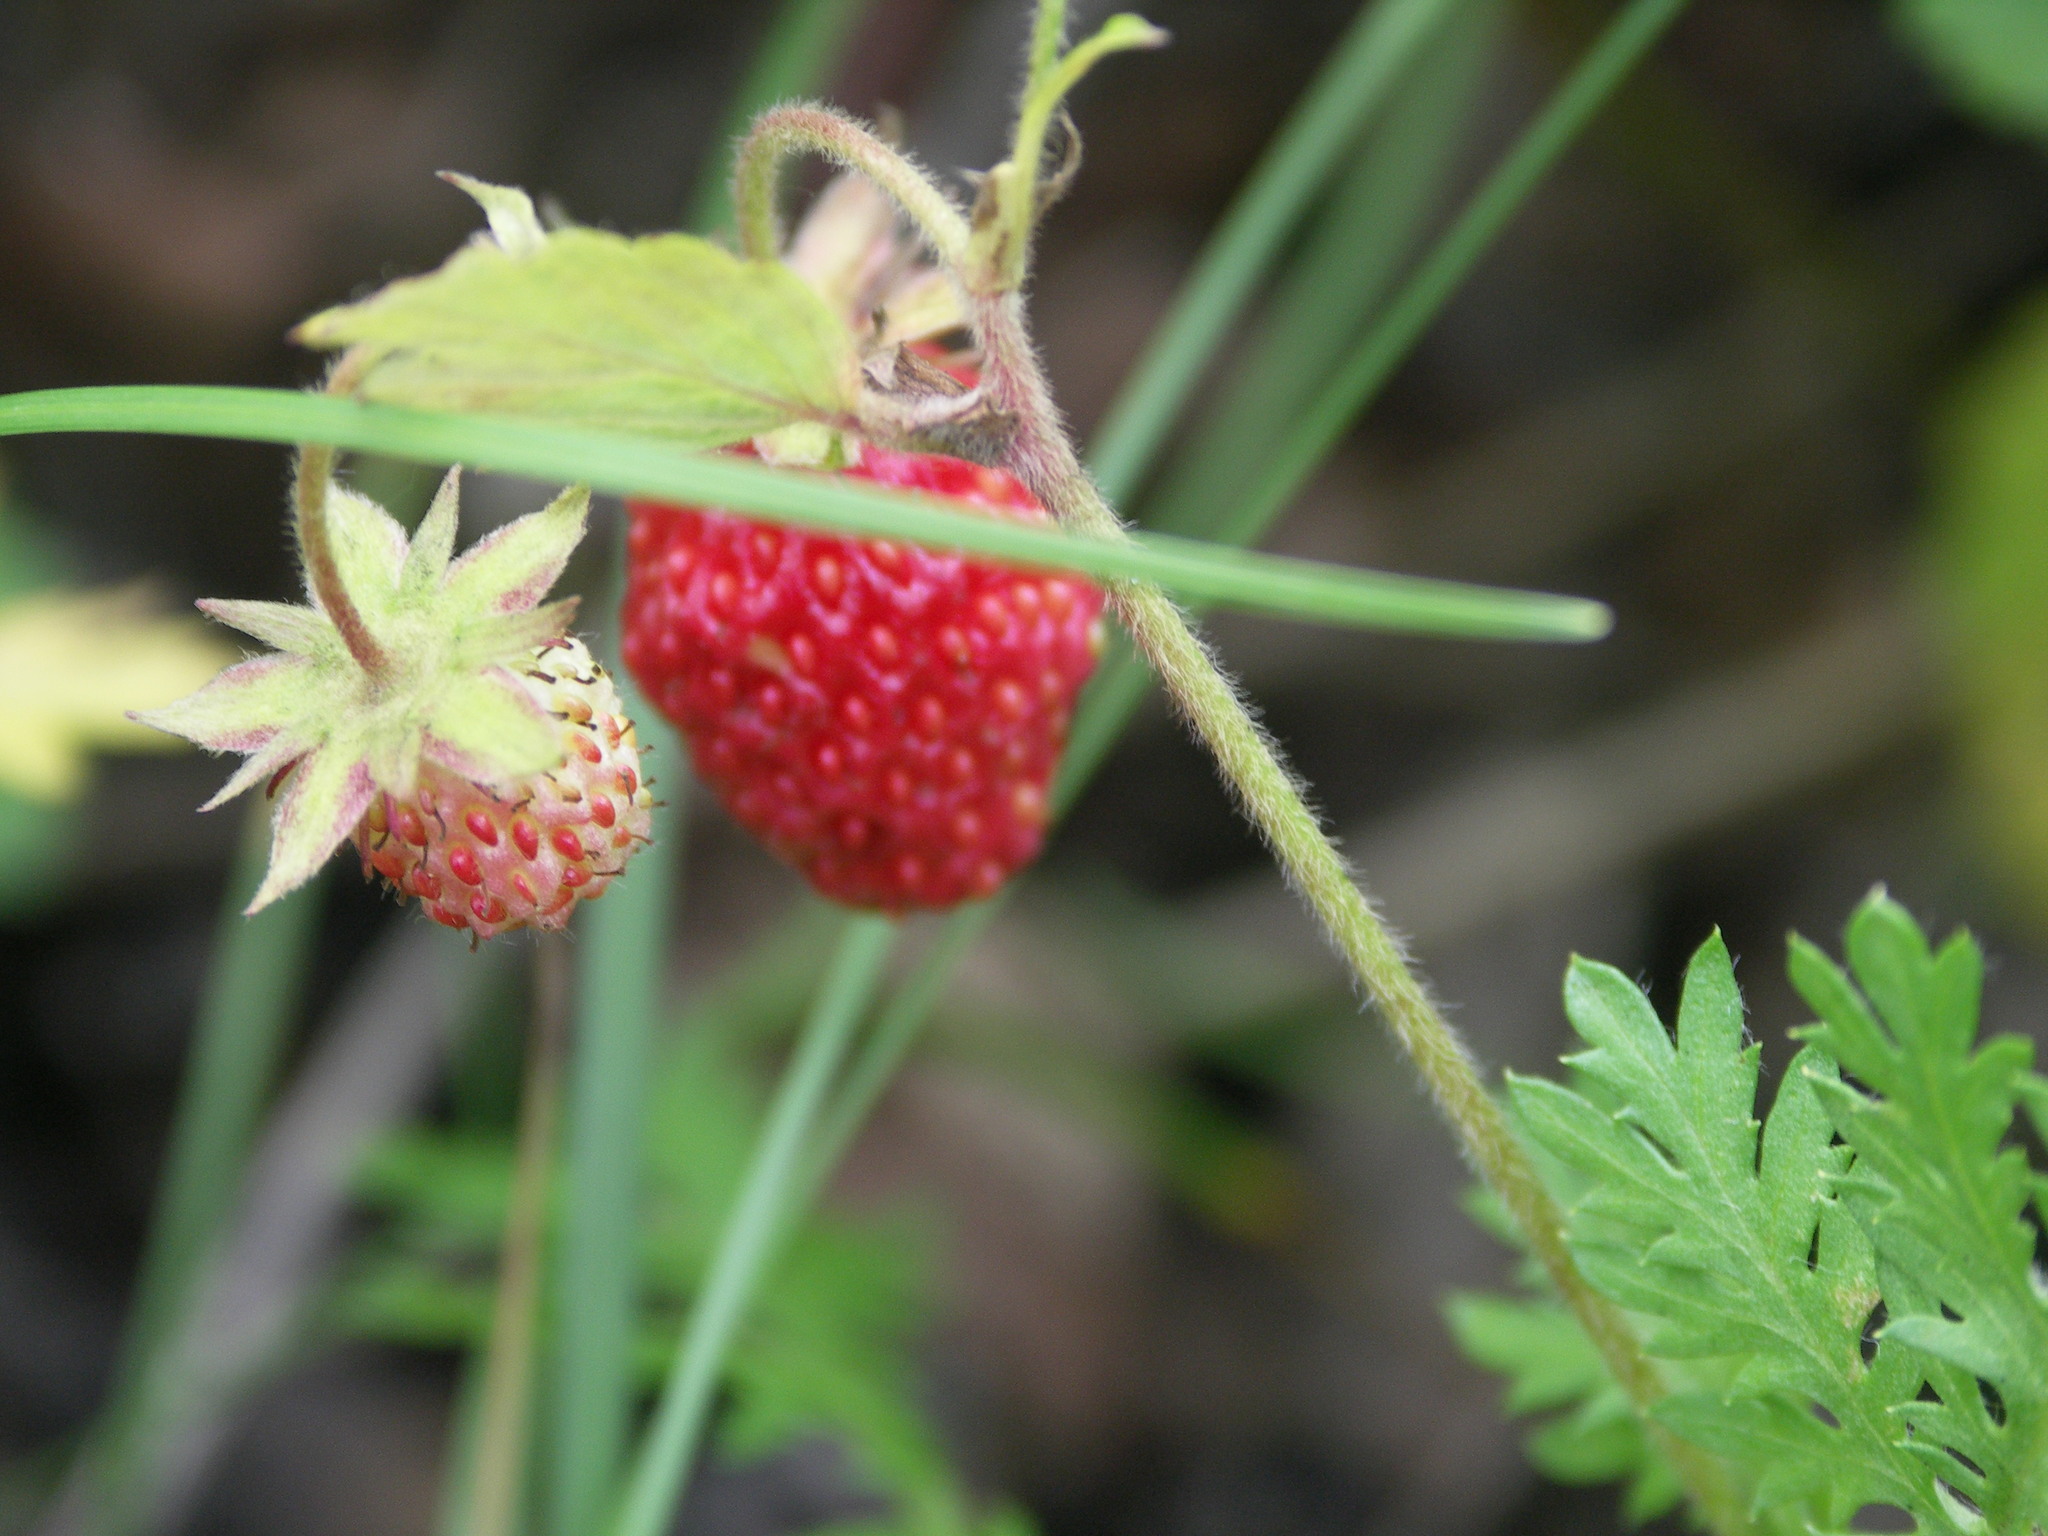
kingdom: Plantae
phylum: Tracheophyta
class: Magnoliopsida
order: Rosales
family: Rosaceae
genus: Fragaria
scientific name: Fragaria orientalis
